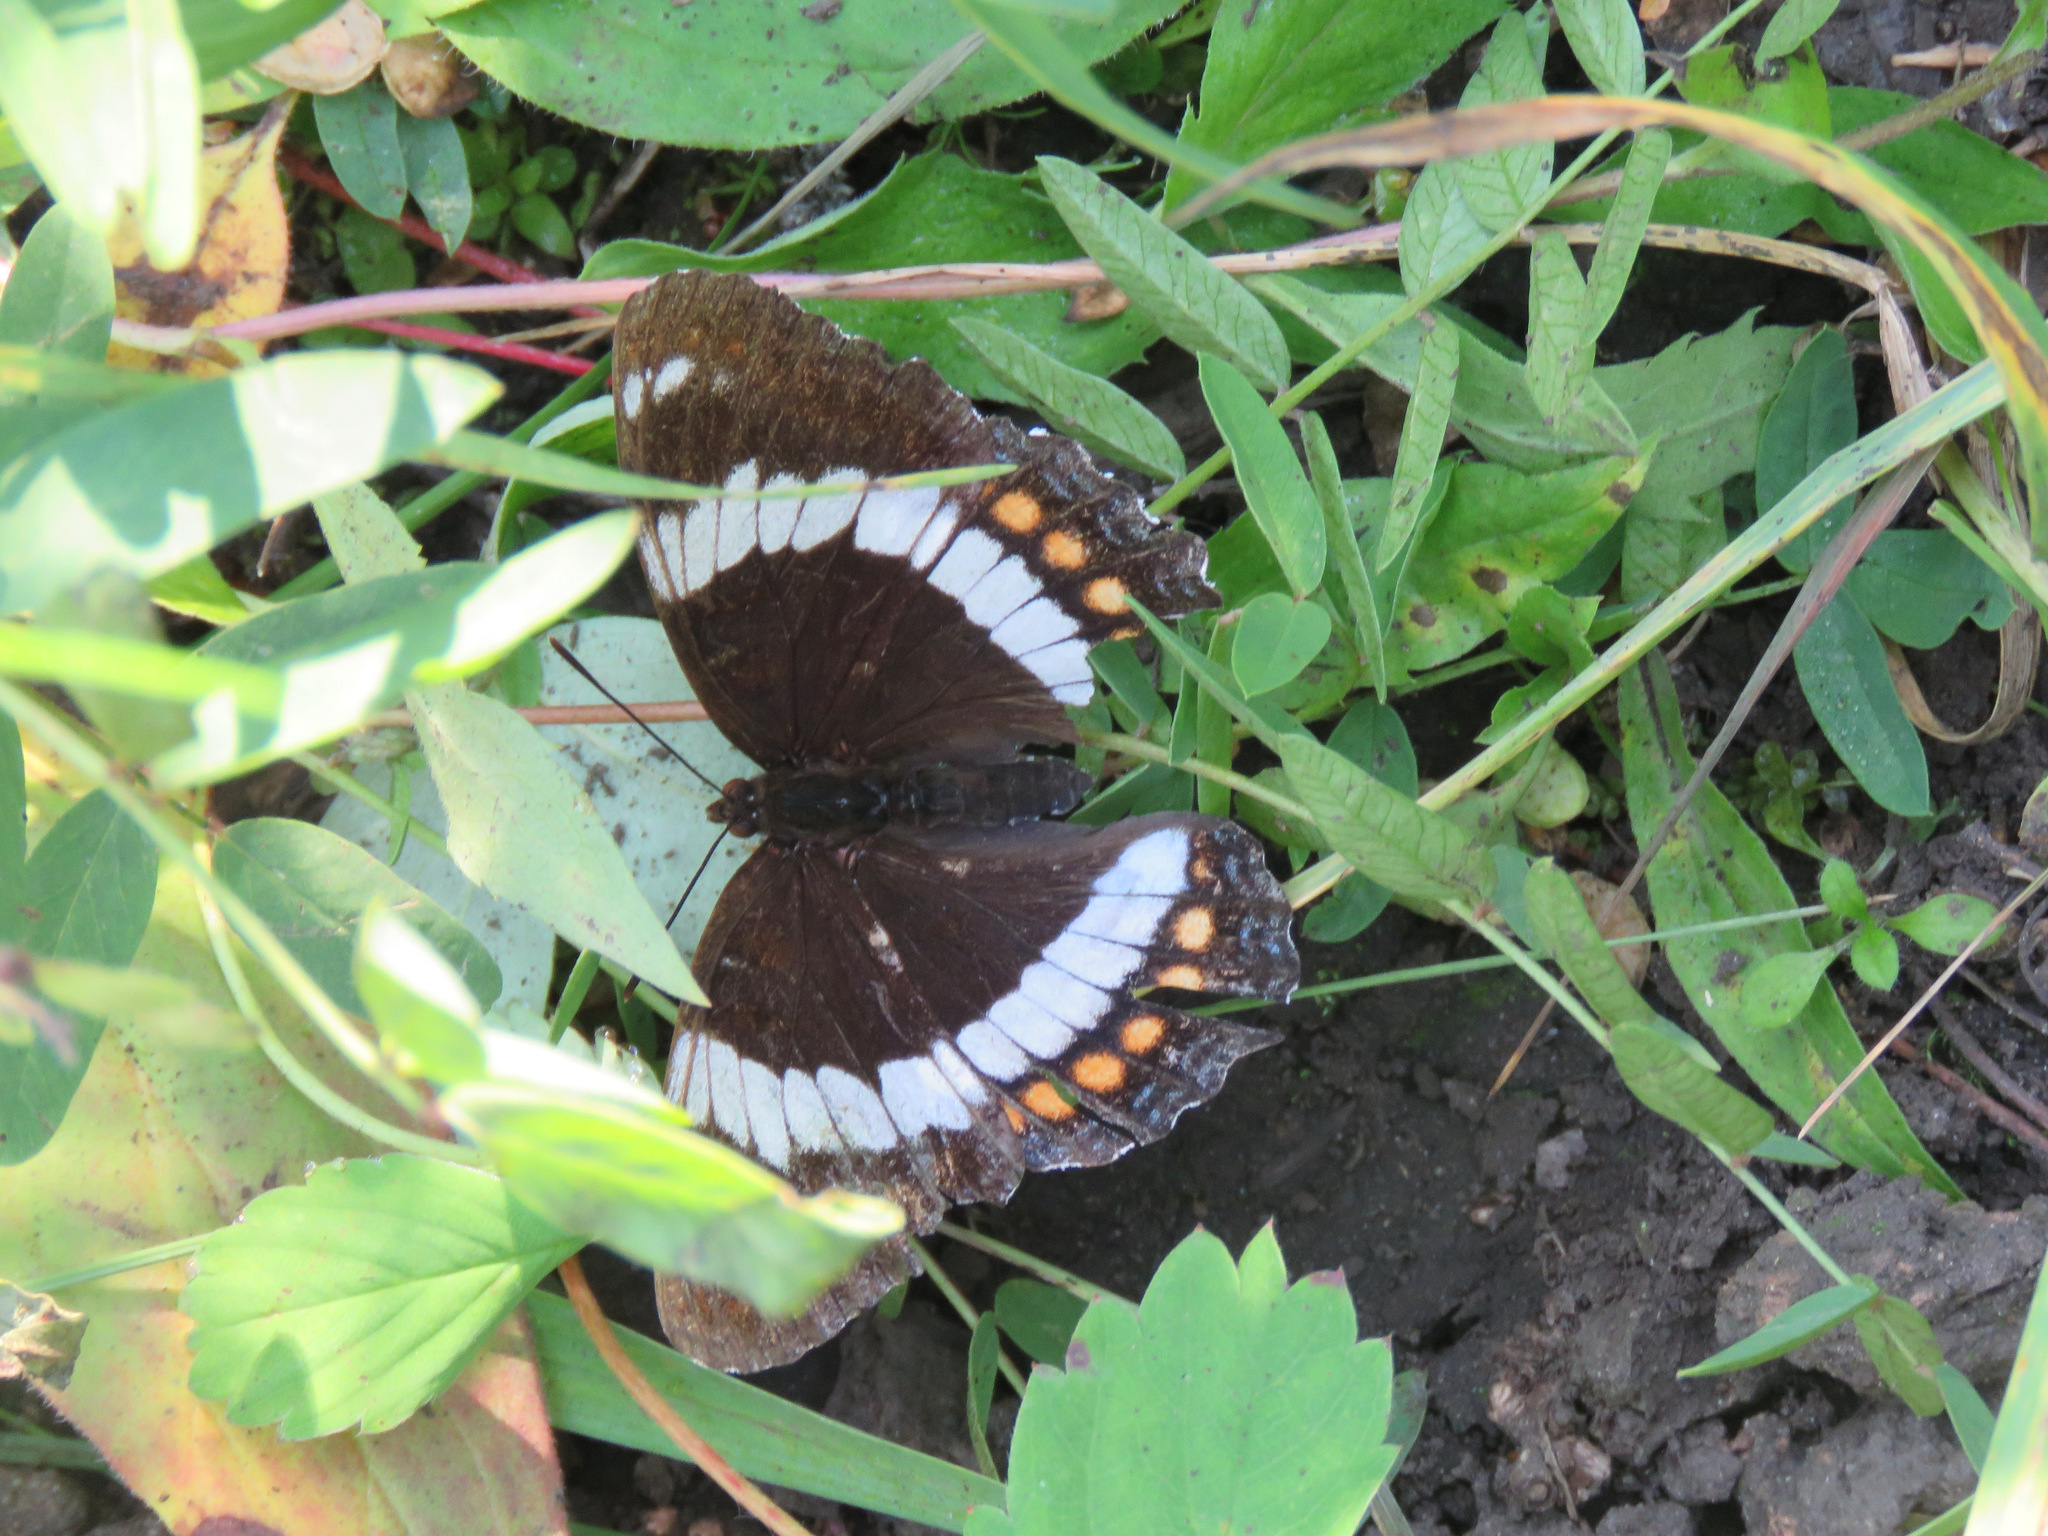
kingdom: Animalia
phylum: Arthropoda
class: Insecta
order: Lepidoptera
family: Nymphalidae
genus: Limenitis
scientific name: Limenitis arthemis
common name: Red-spotted admiral
